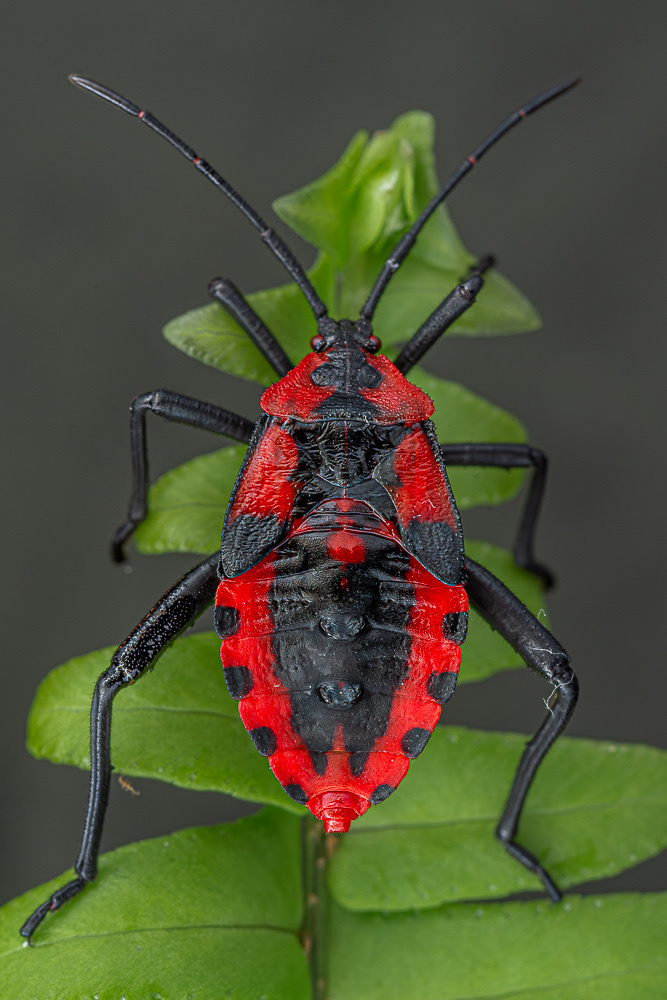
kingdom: Animalia
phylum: Arthropoda
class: Insecta
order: Hemiptera
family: Coreidae
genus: Piezogaster
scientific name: Piezogaster rubropictus
